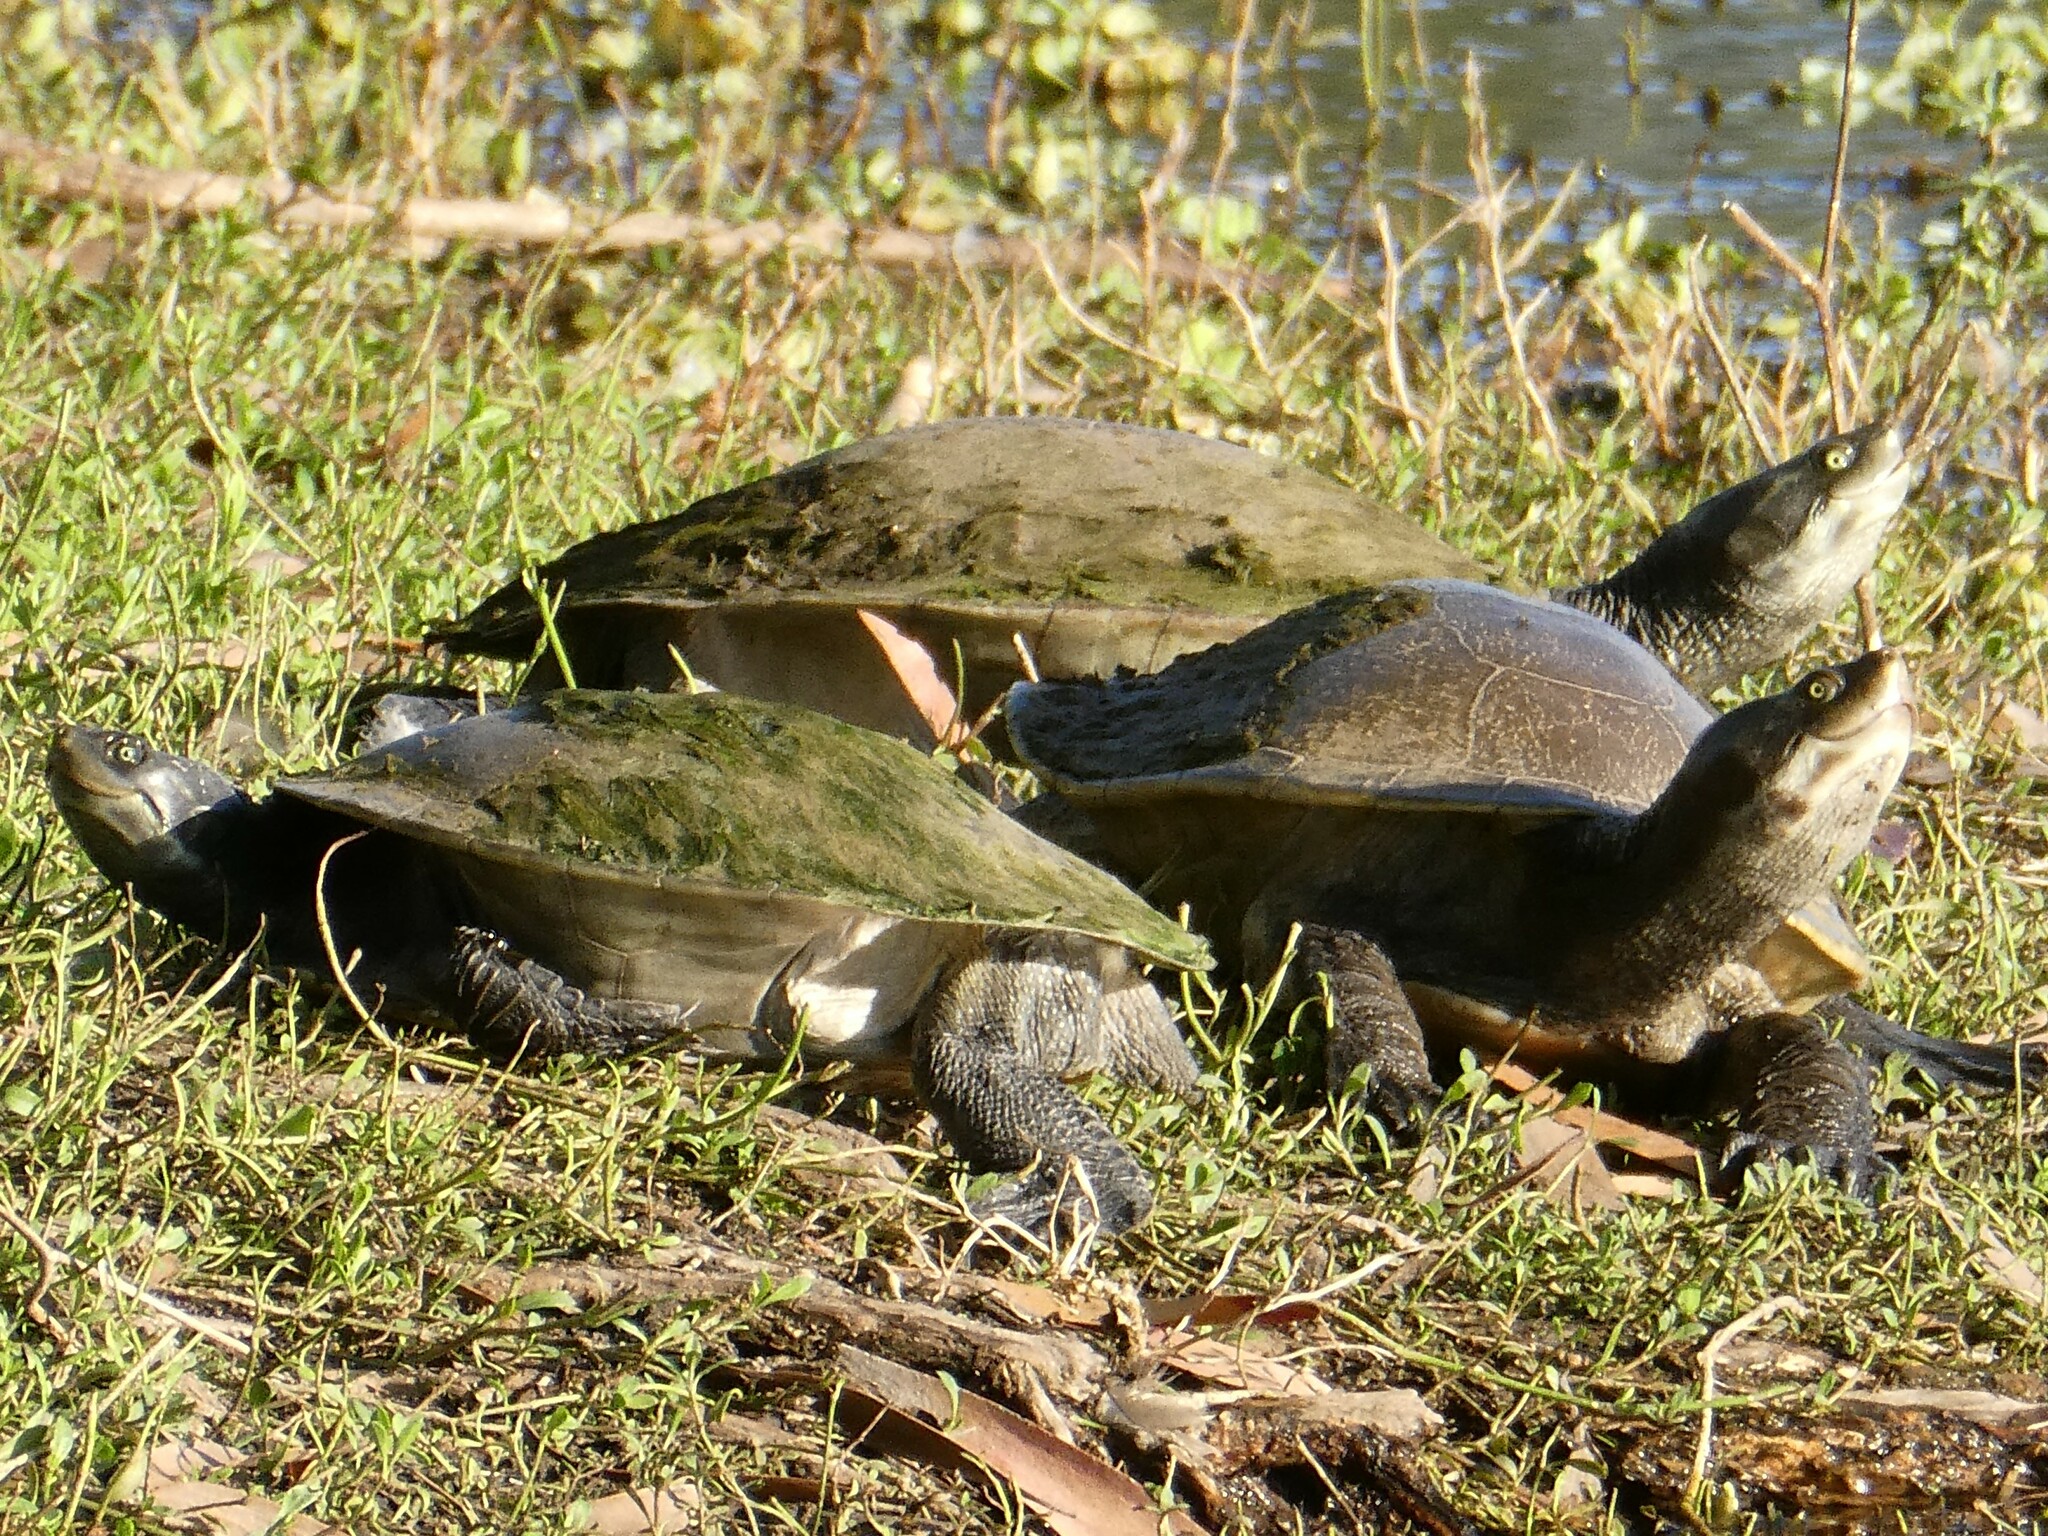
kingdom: Animalia
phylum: Chordata
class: Testudines
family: Chelidae
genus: Emydura
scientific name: Emydura macquarii
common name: Murray river turtle
